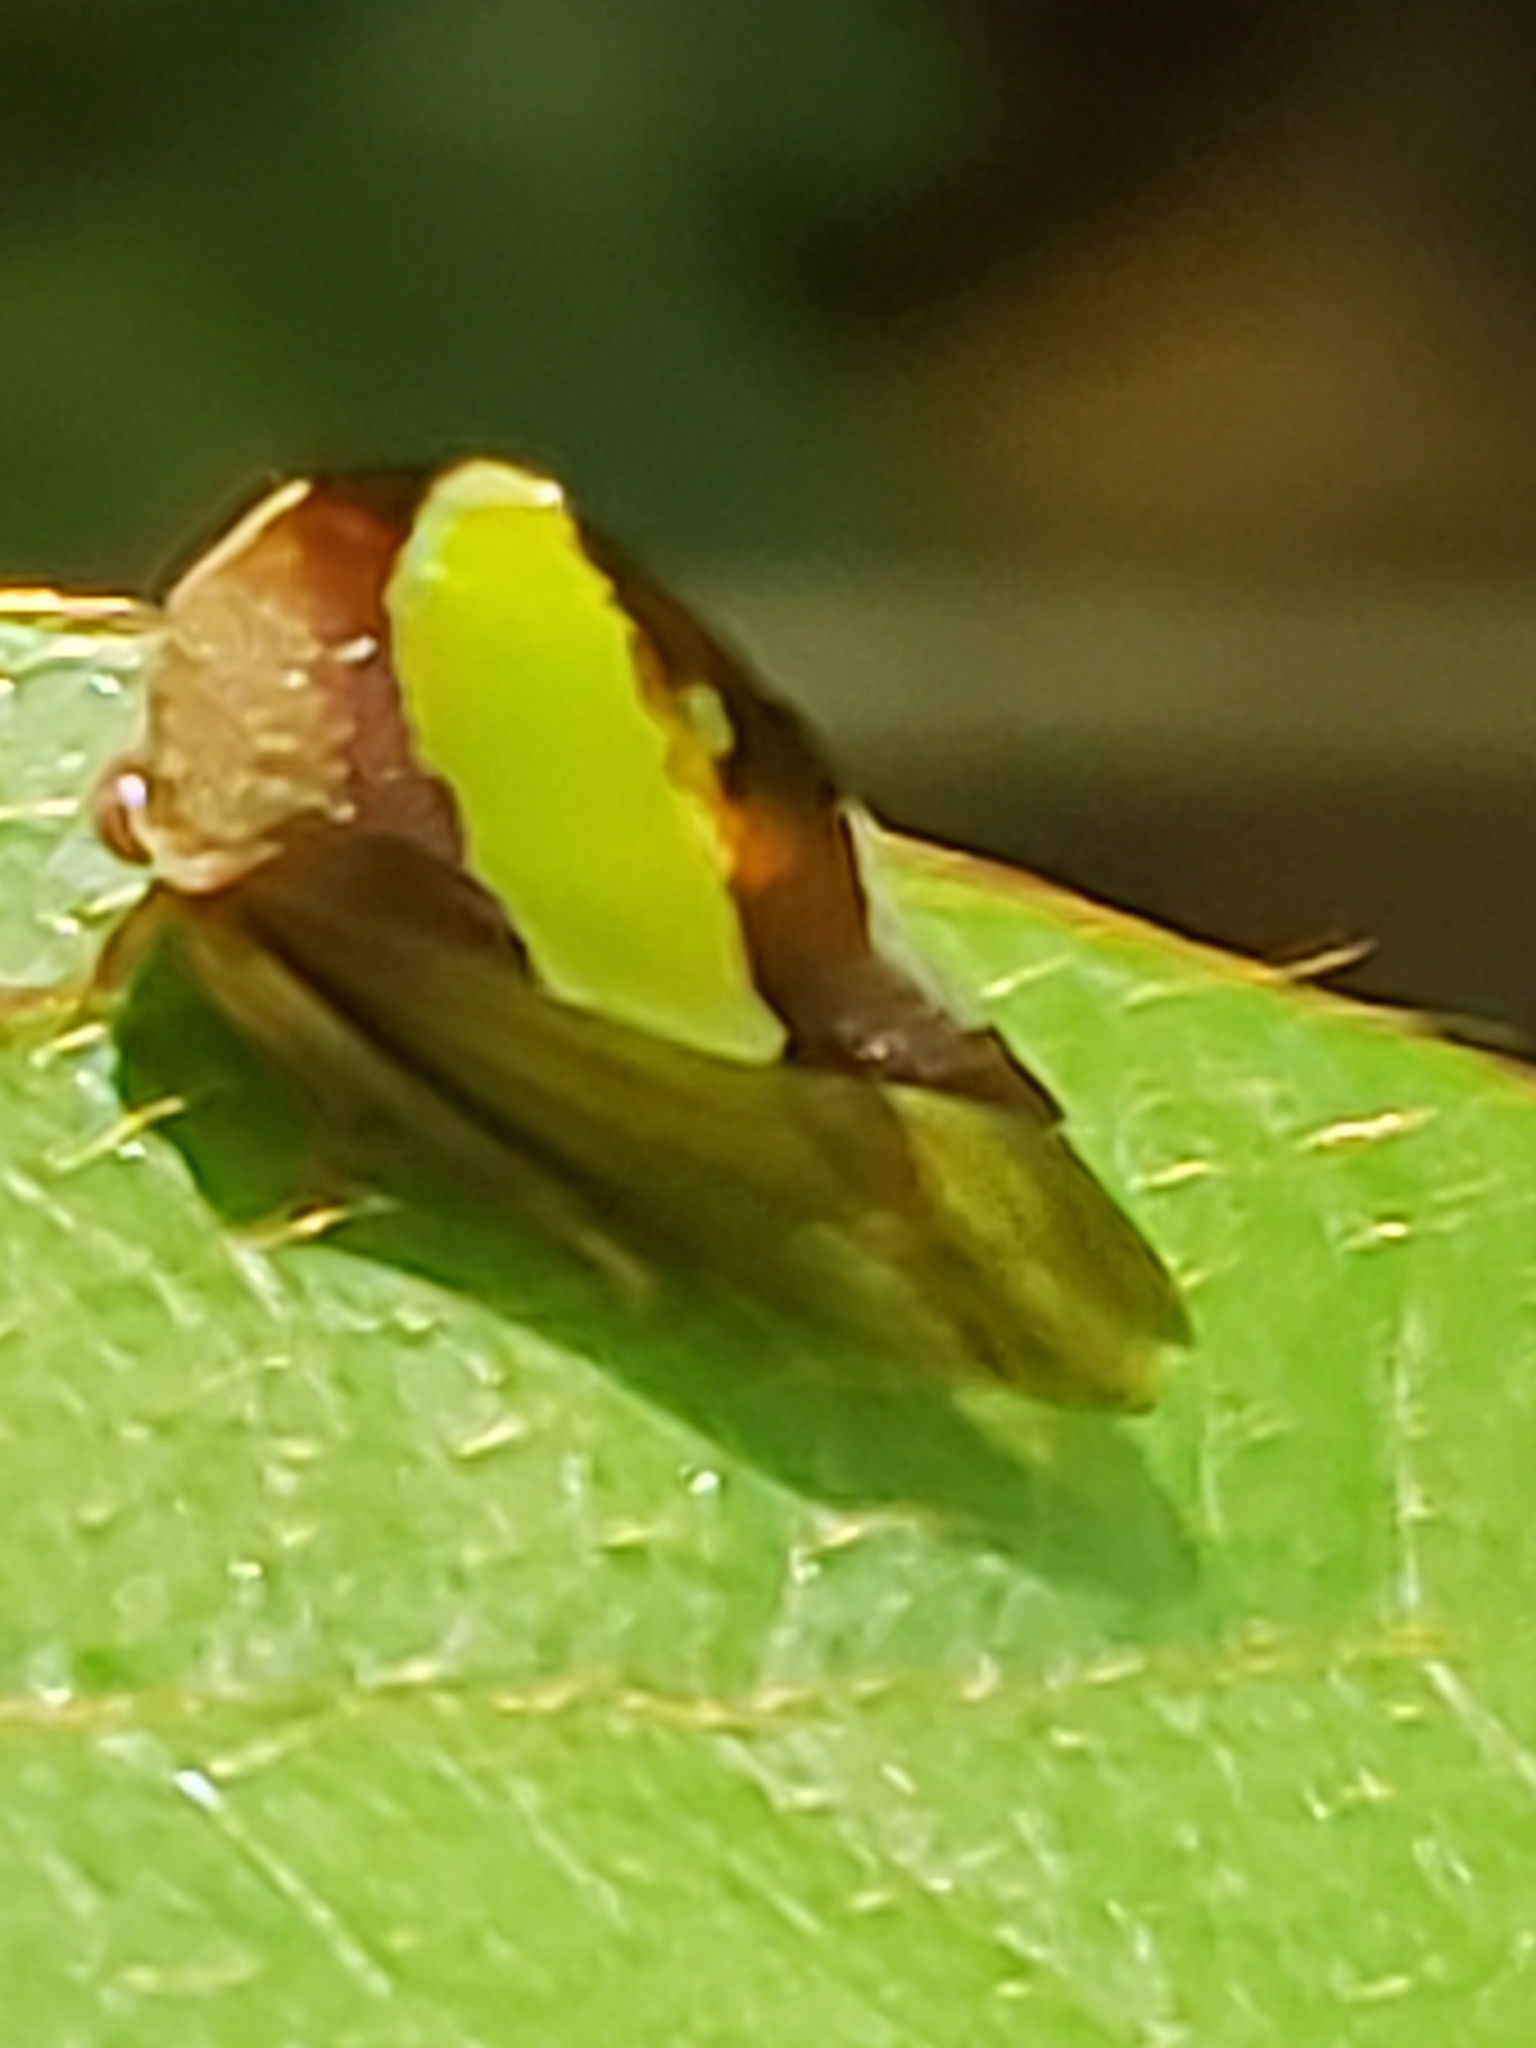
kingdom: Animalia
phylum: Arthropoda
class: Insecta
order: Hemiptera
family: Membracidae
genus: Smilia
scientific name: Smilia camelus
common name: Camel treehopper
